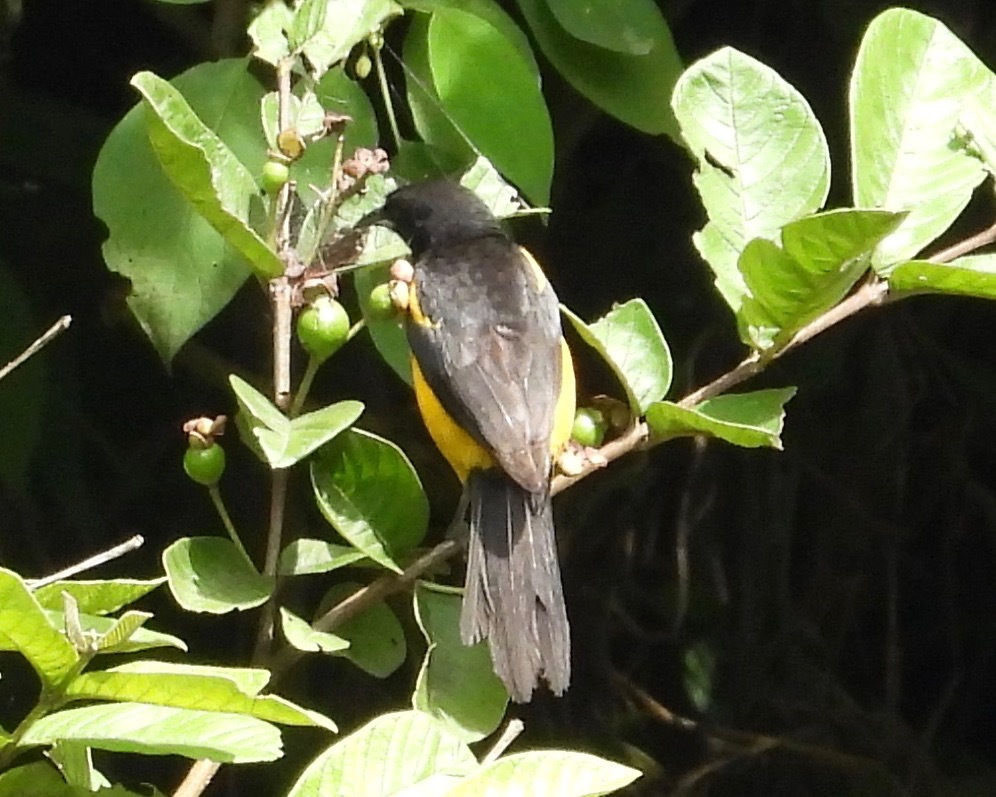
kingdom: Animalia
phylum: Chordata
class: Aves
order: Passeriformes
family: Icteridae
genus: Icterus
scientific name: Icterus wagleri
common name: Black-vented oriole
